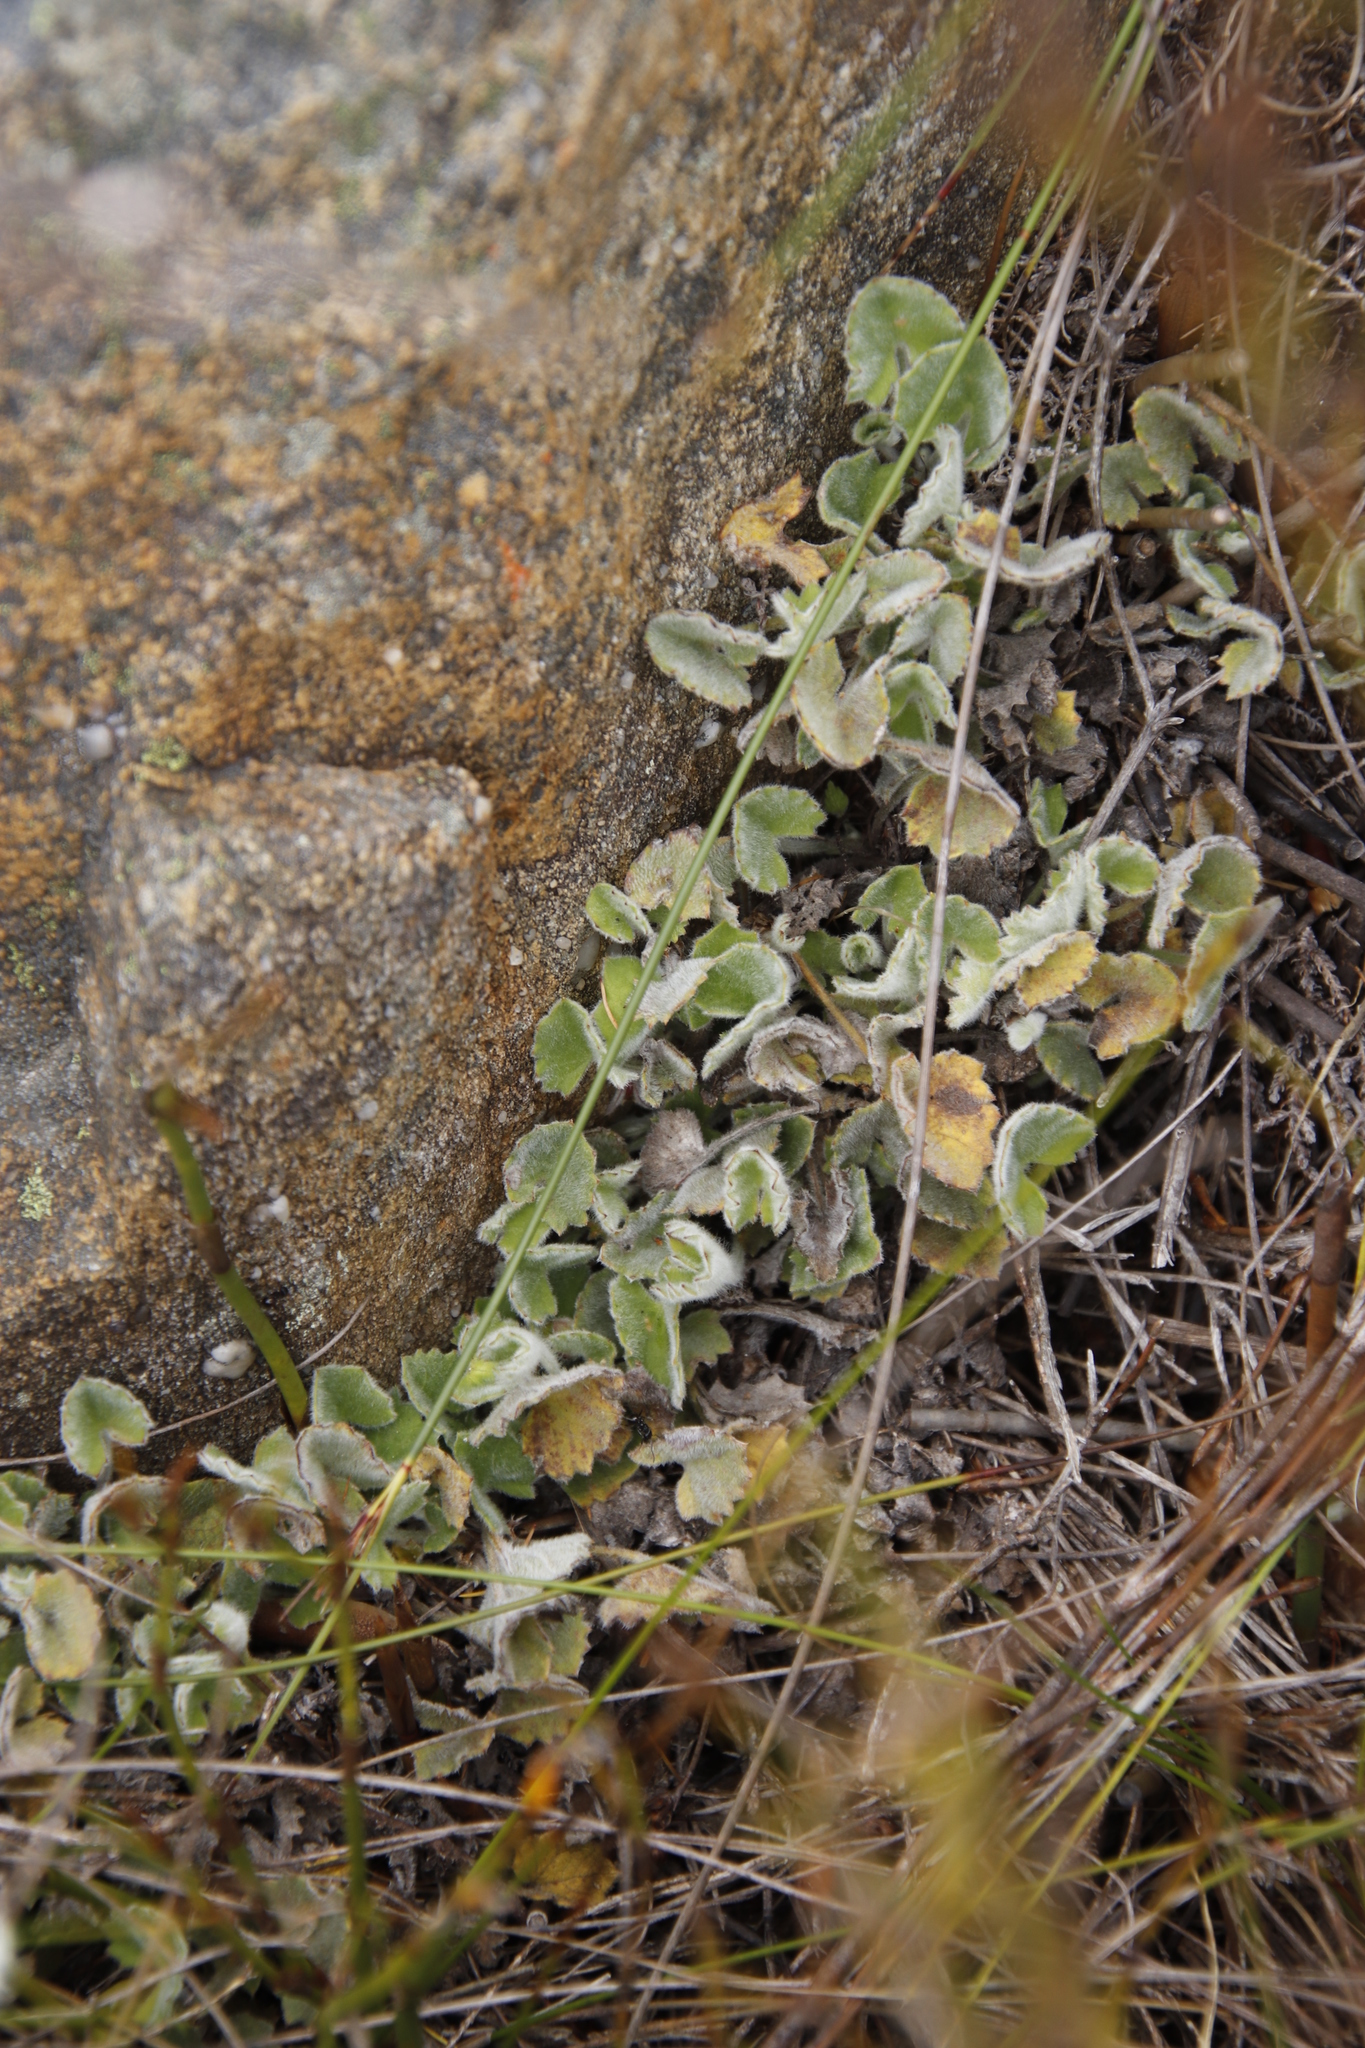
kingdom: Plantae
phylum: Tracheophyta
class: Magnoliopsida
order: Apiales
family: Apiaceae
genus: Centella
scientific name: Centella flexuosa
